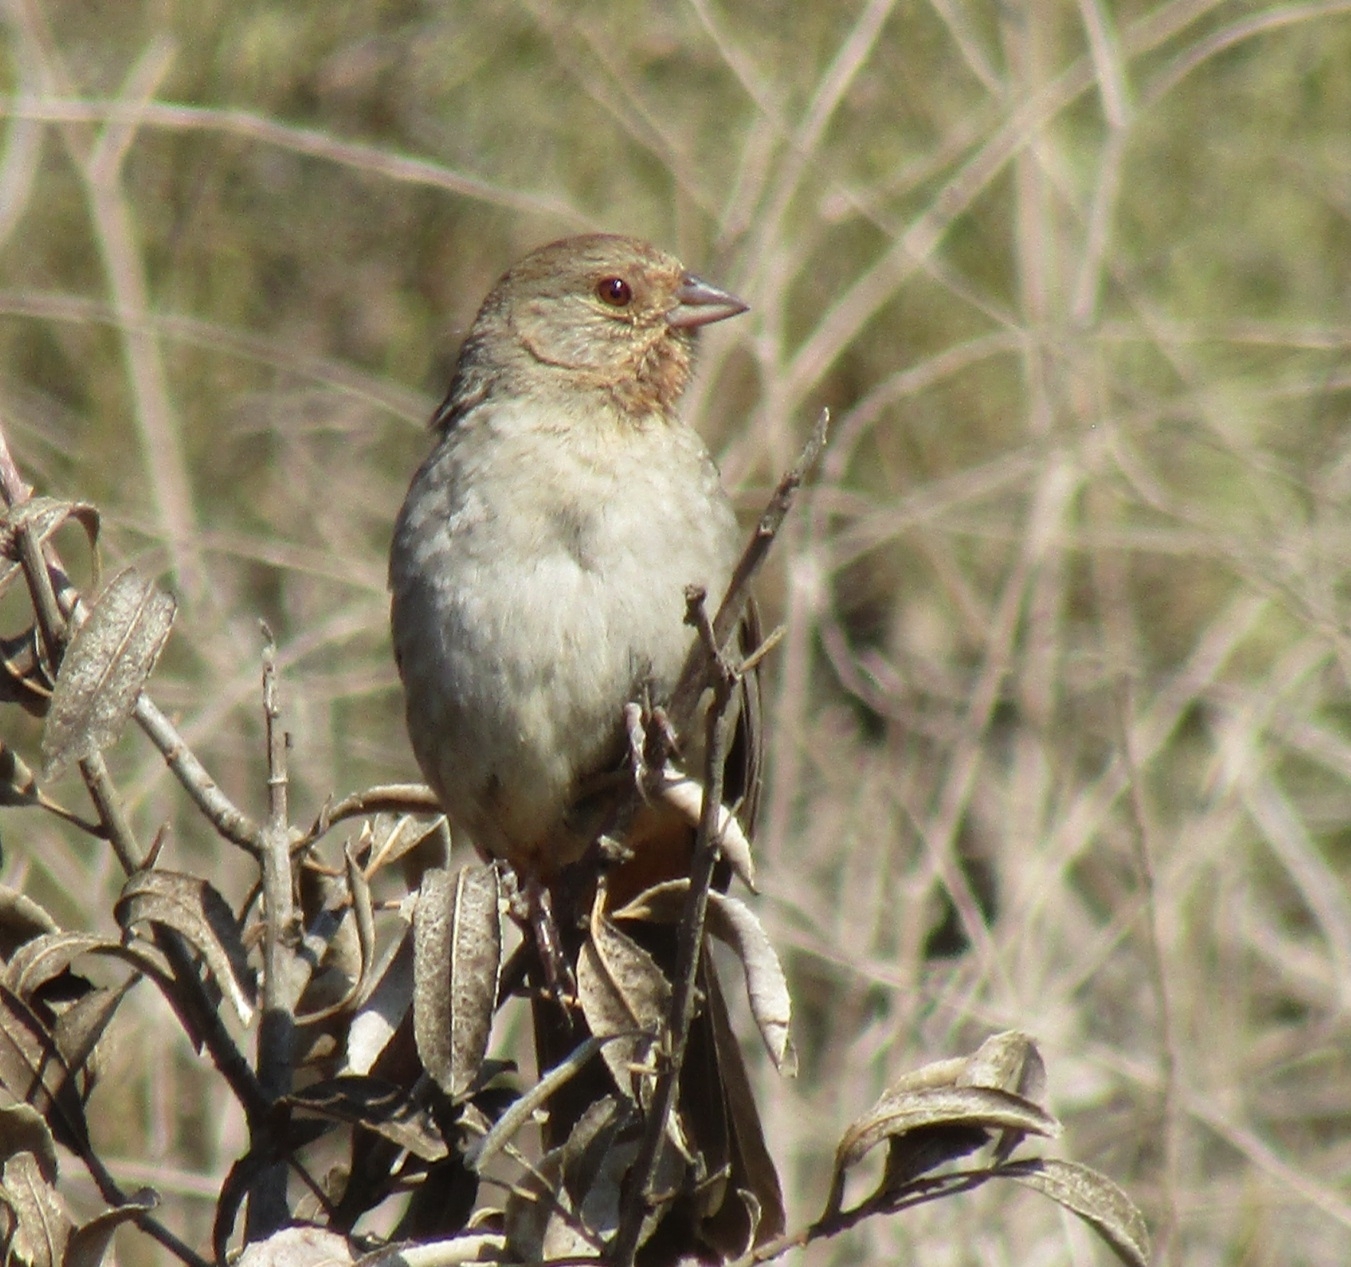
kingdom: Animalia
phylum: Chordata
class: Aves
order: Passeriformes
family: Passerellidae
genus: Melozone
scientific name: Melozone crissalis
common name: California towhee
